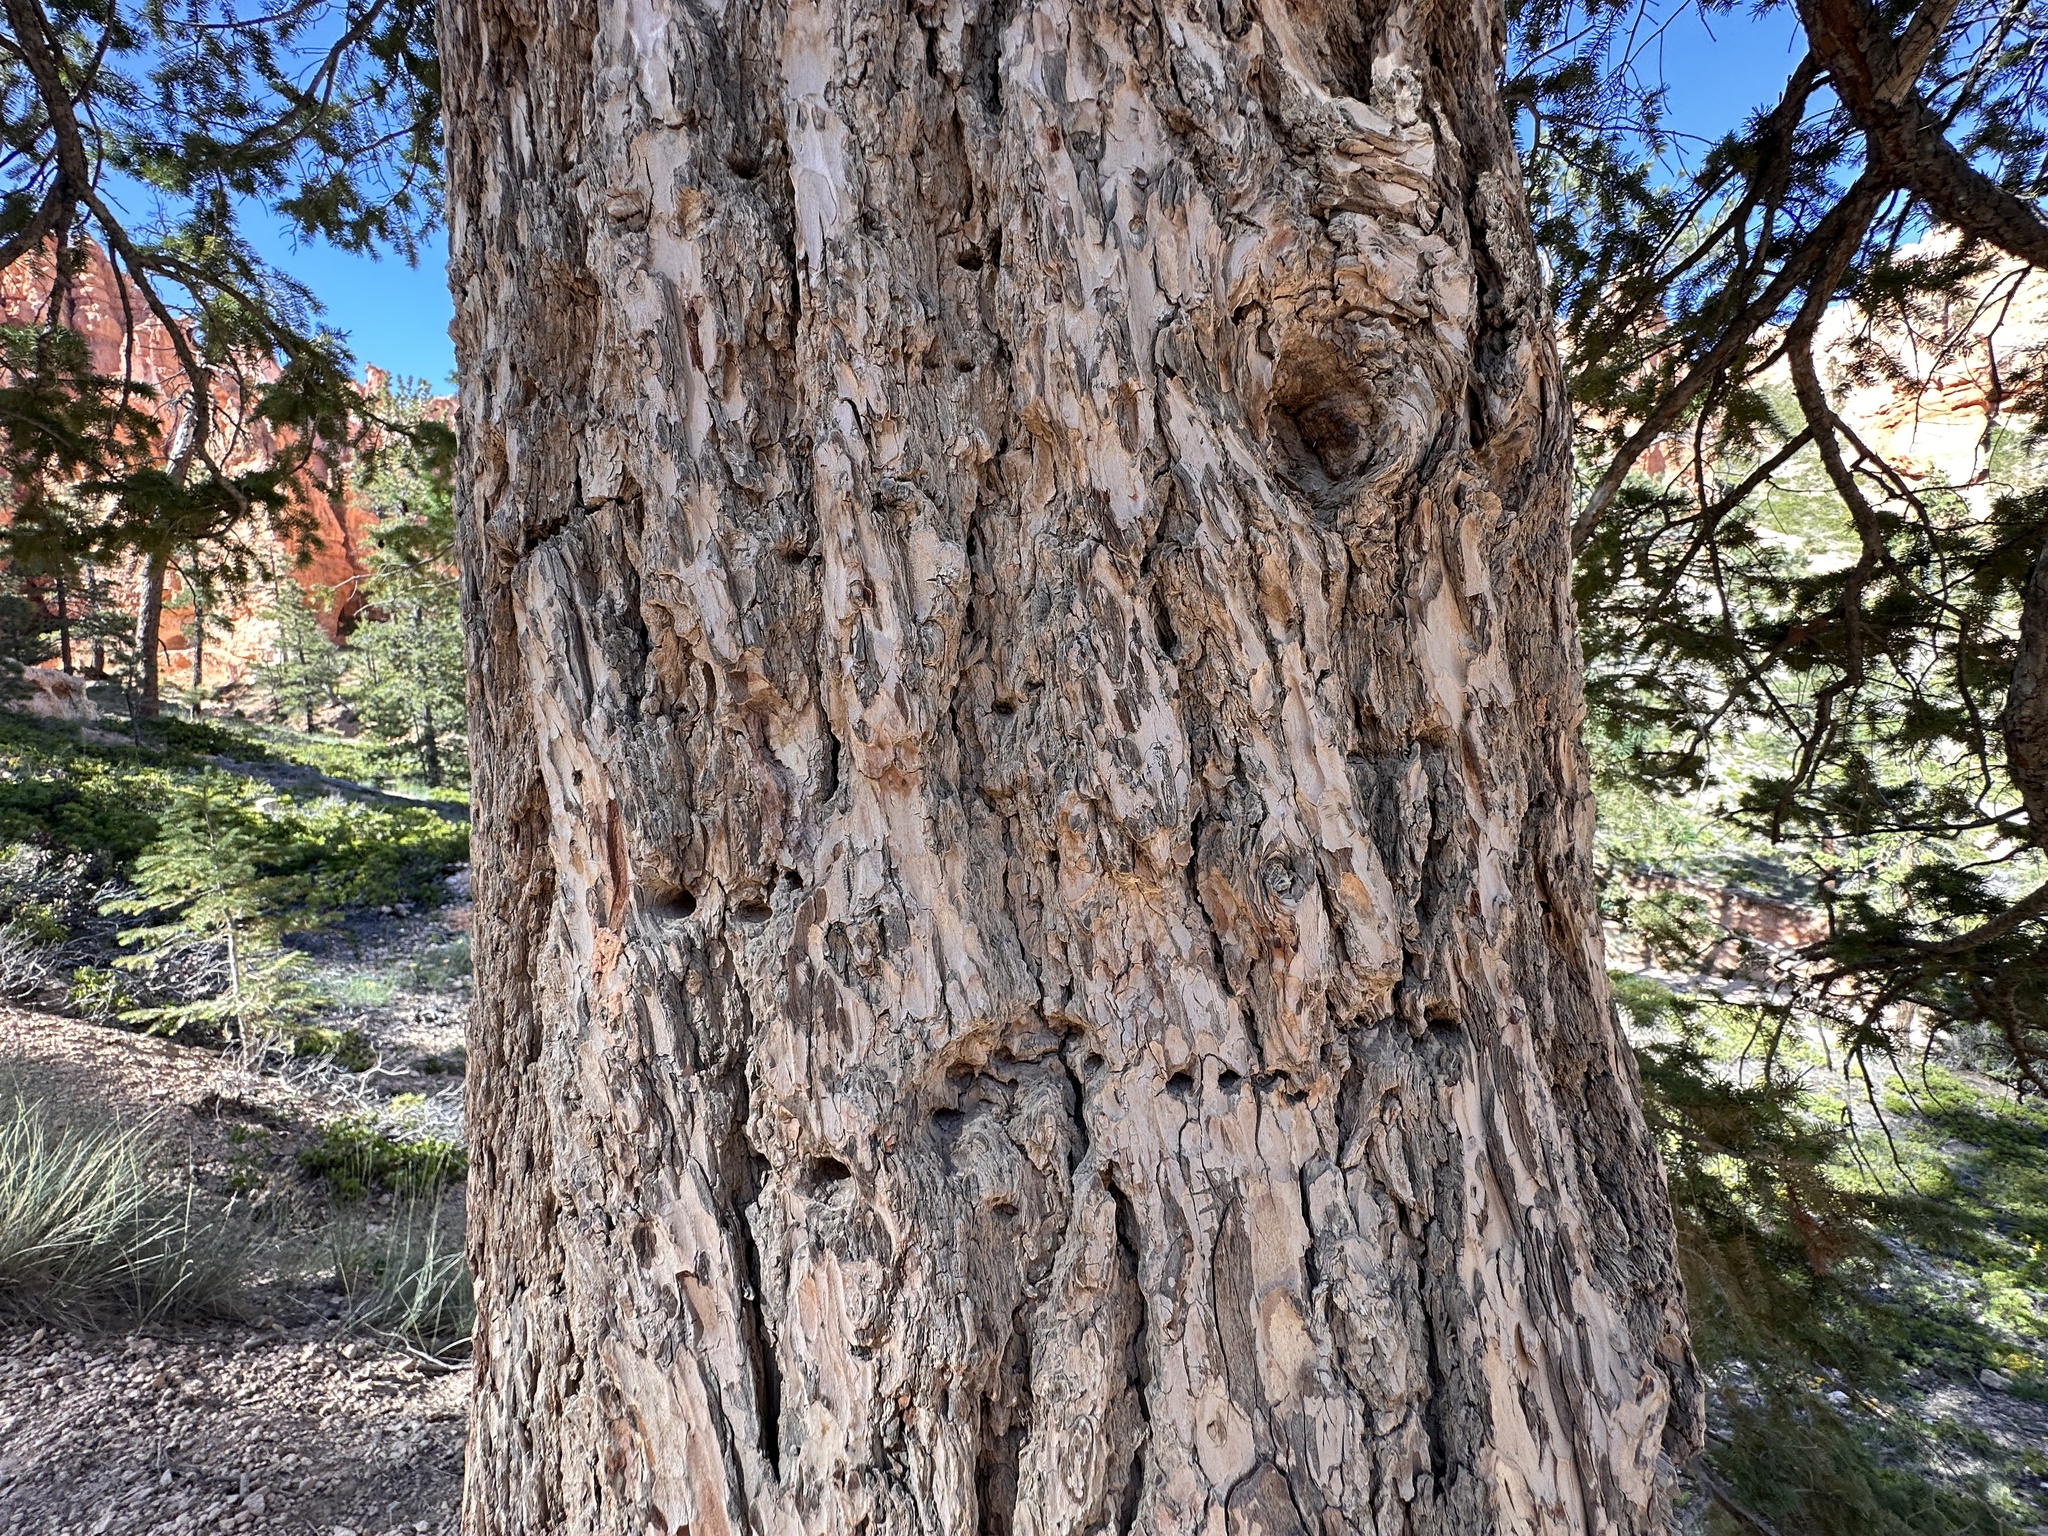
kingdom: Plantae
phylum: Tracheophyta
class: Pinopsida
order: Pinales
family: Pinaceae
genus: Pseudotsuga
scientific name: Pseudotsuga menziesii
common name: Douglas fir
